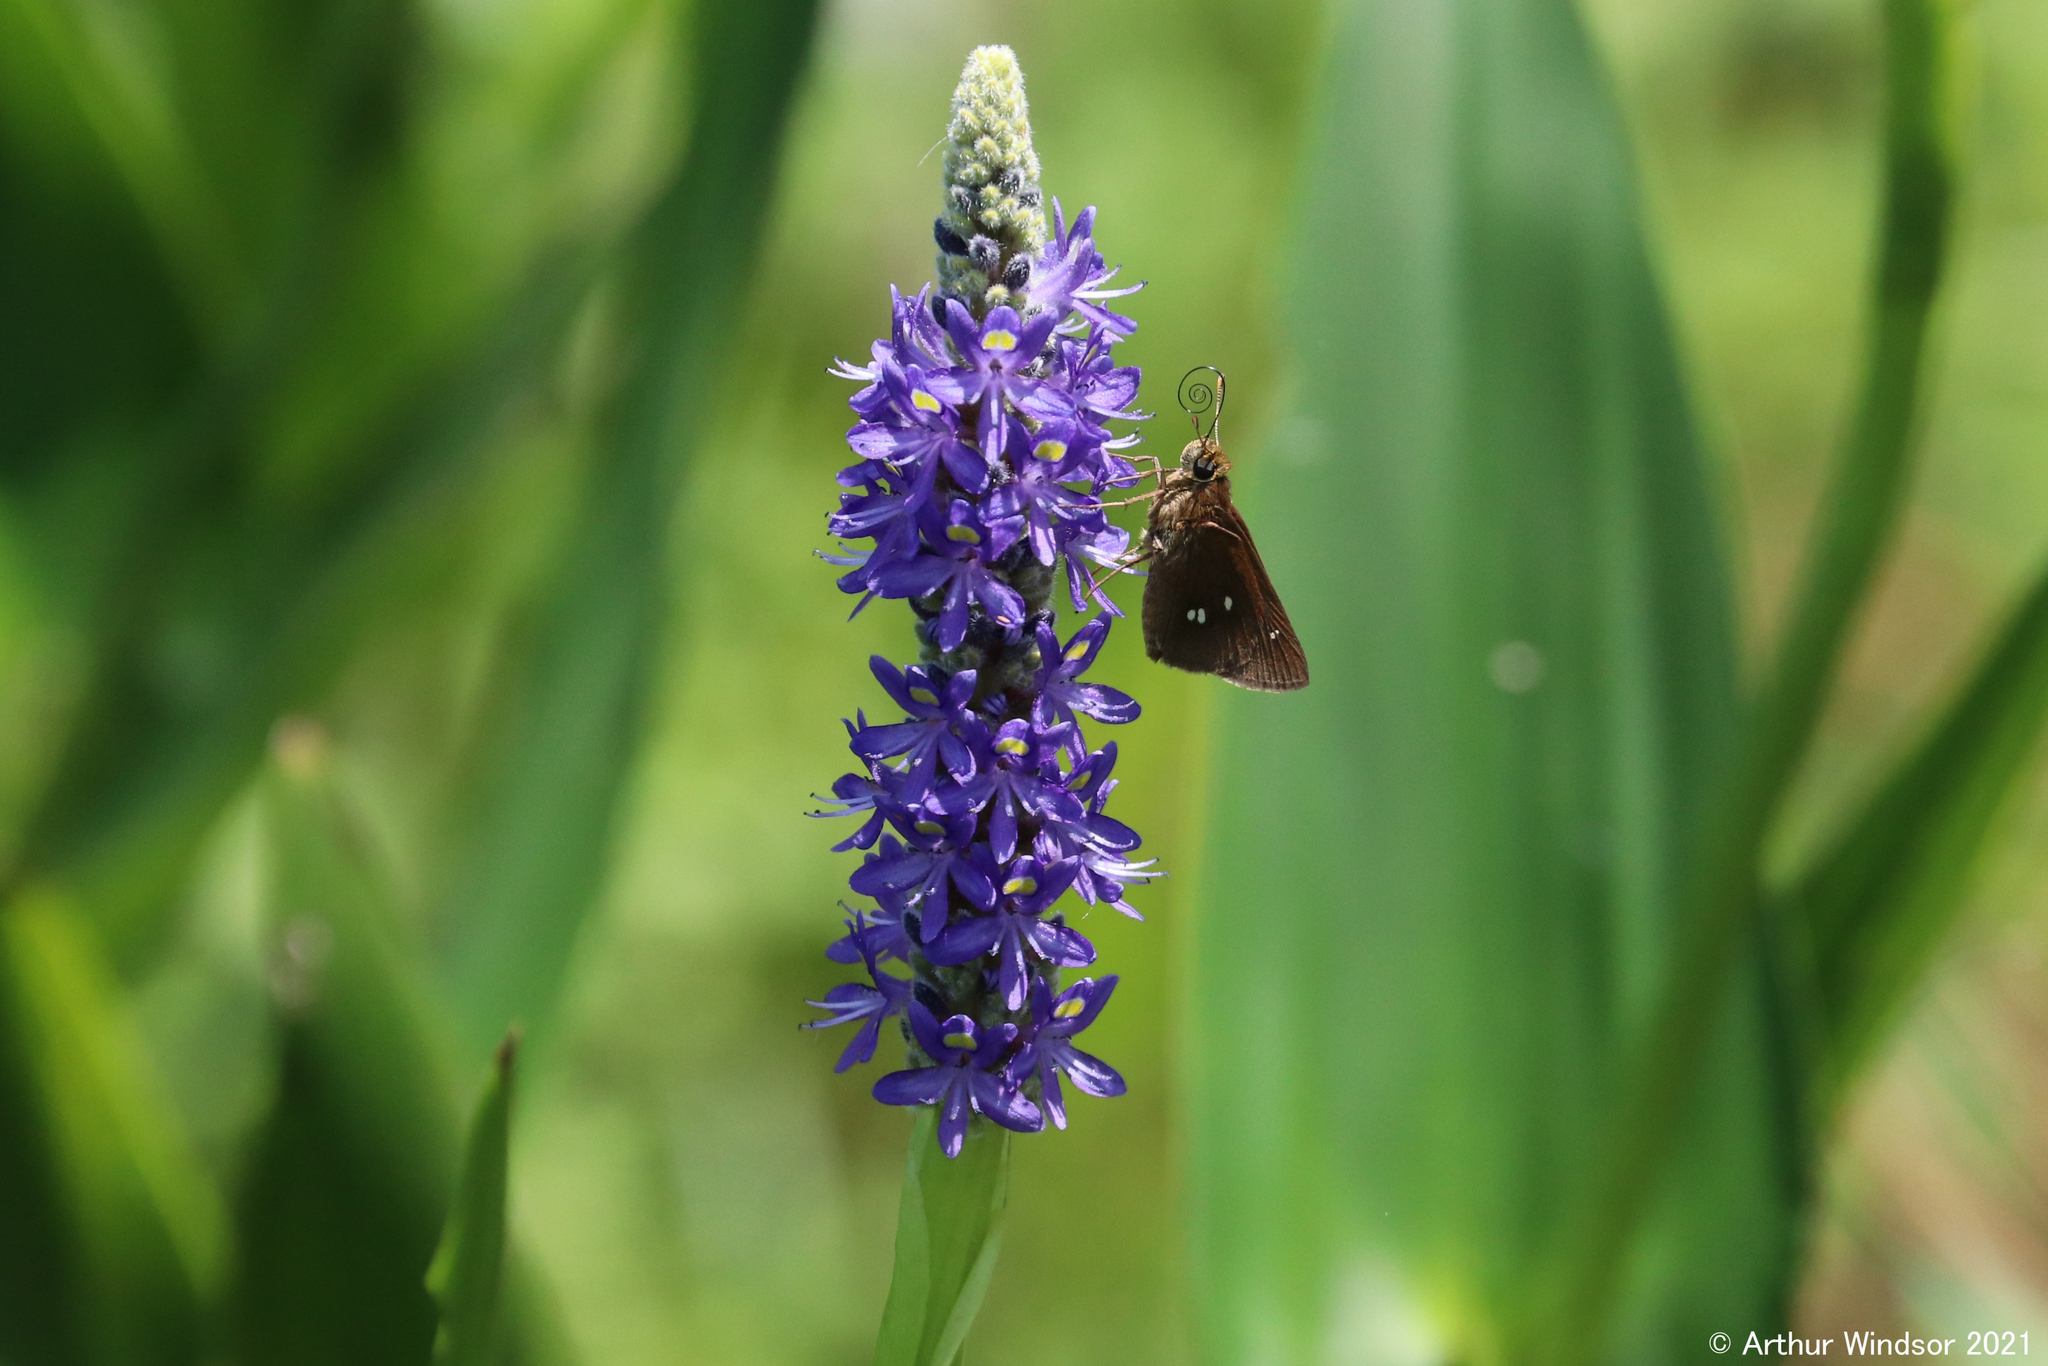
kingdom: Animalia
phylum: Arthropoda
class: Insecta
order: Lepidoptera
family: Hesperiidae
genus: Oligoria
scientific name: Oligoria maculata
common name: Twin-spot skipper
